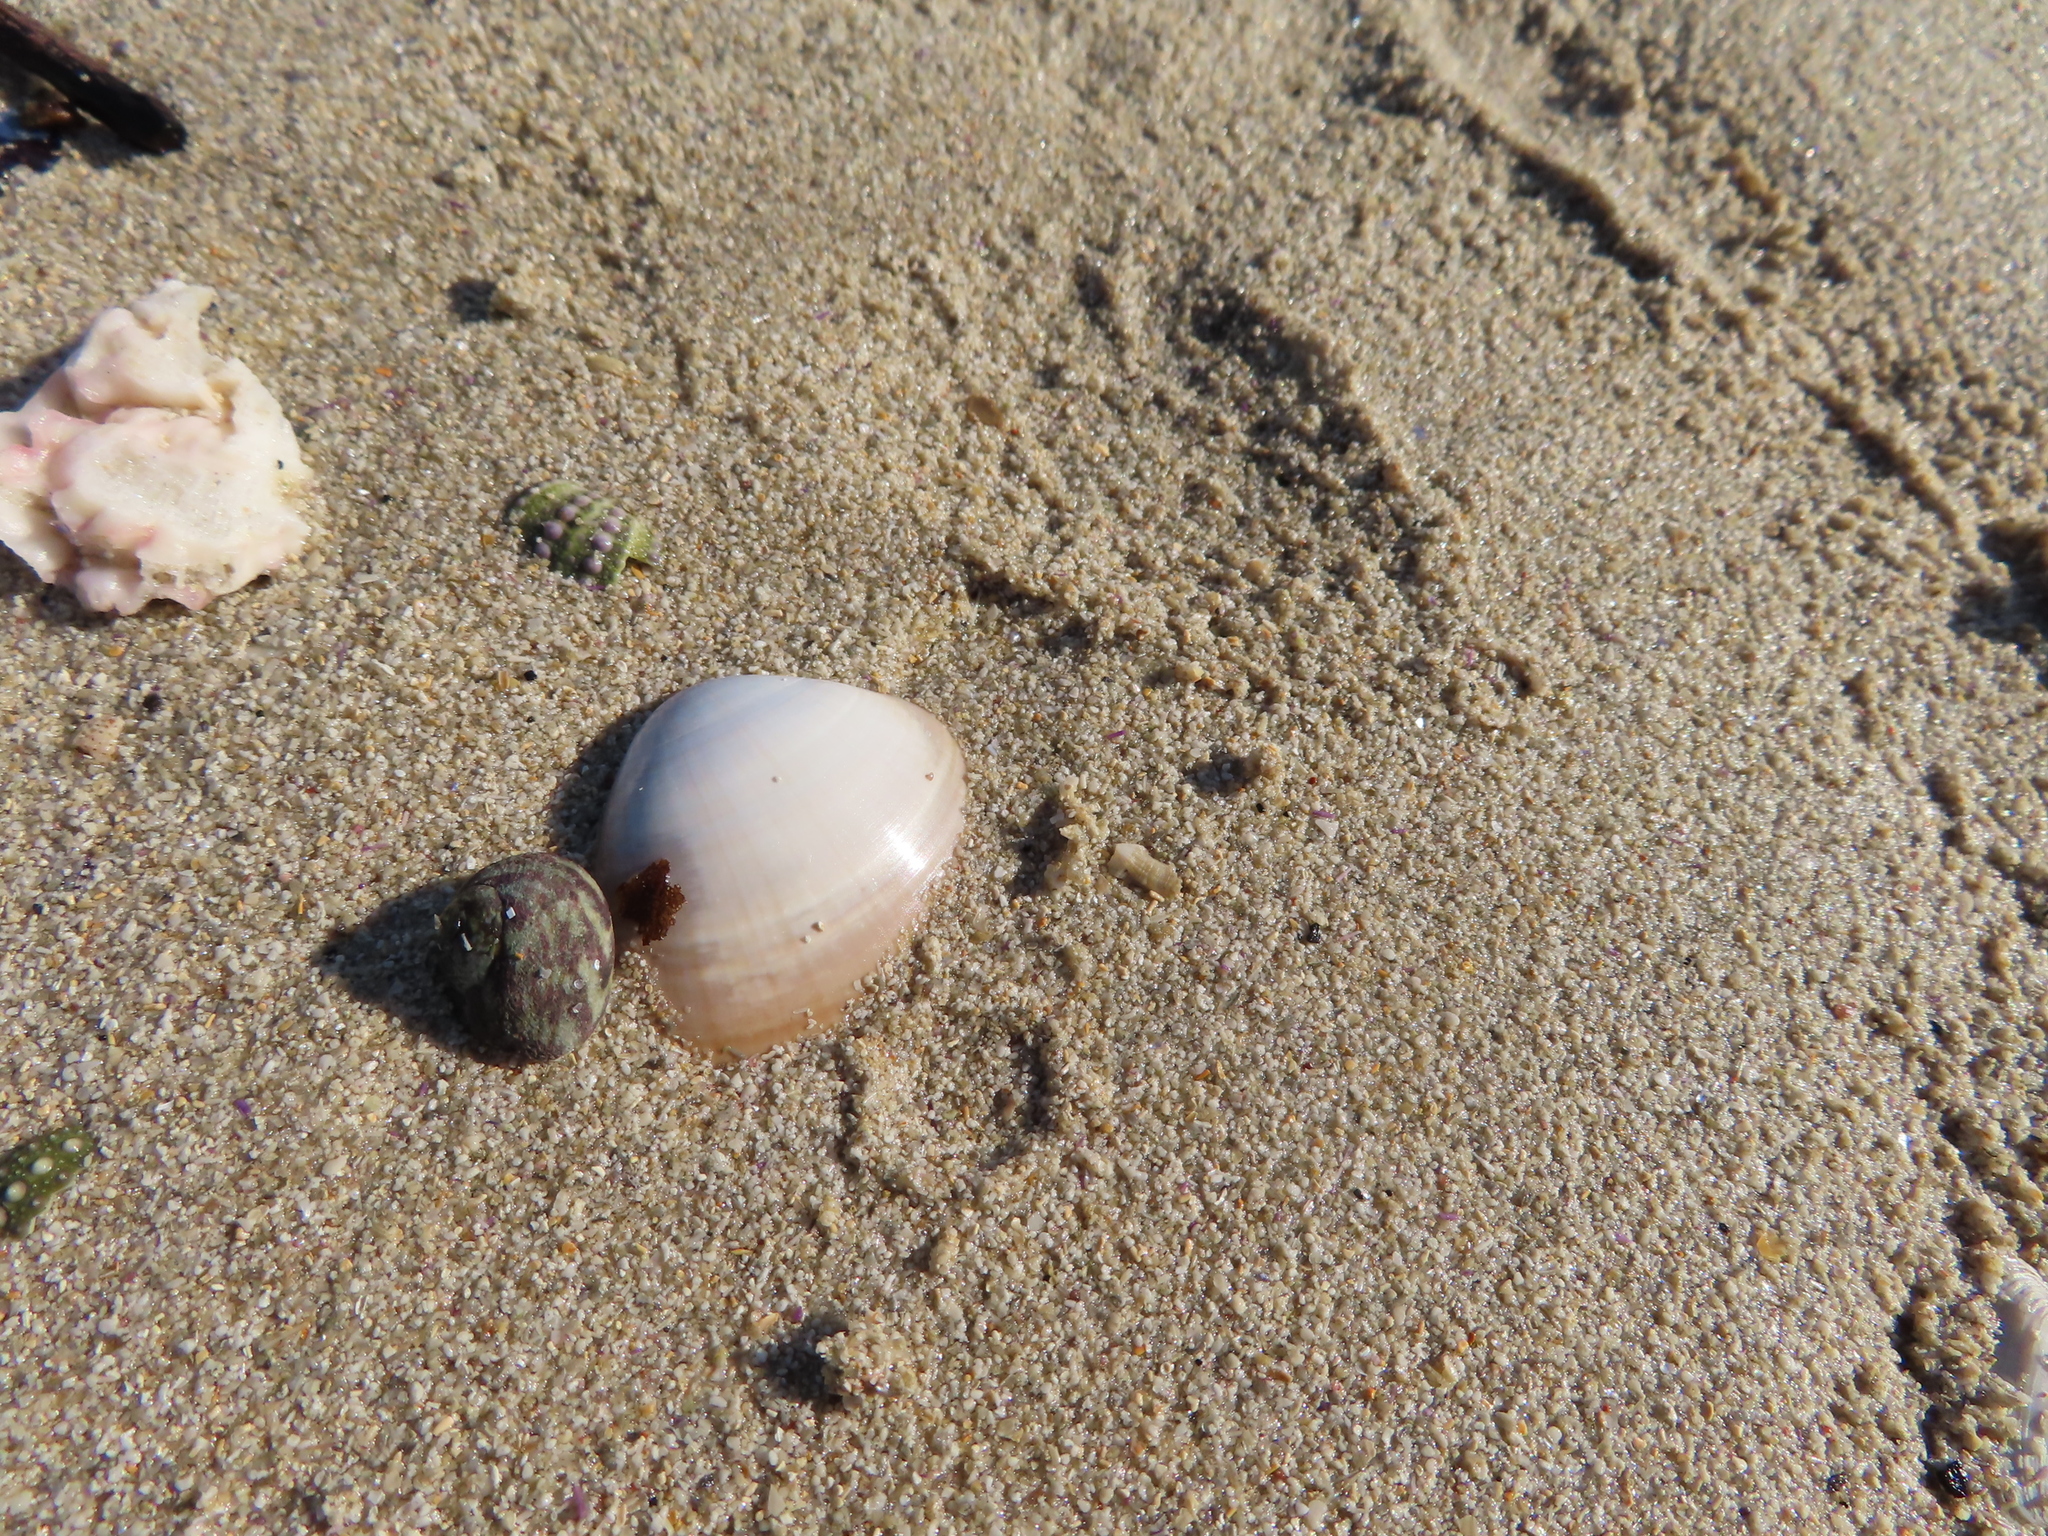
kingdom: Animalia
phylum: Mollusca
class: Bivalvia
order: Venerida
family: Mactridae
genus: Mactra
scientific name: Mactra glabrata
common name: Smooth mactra
